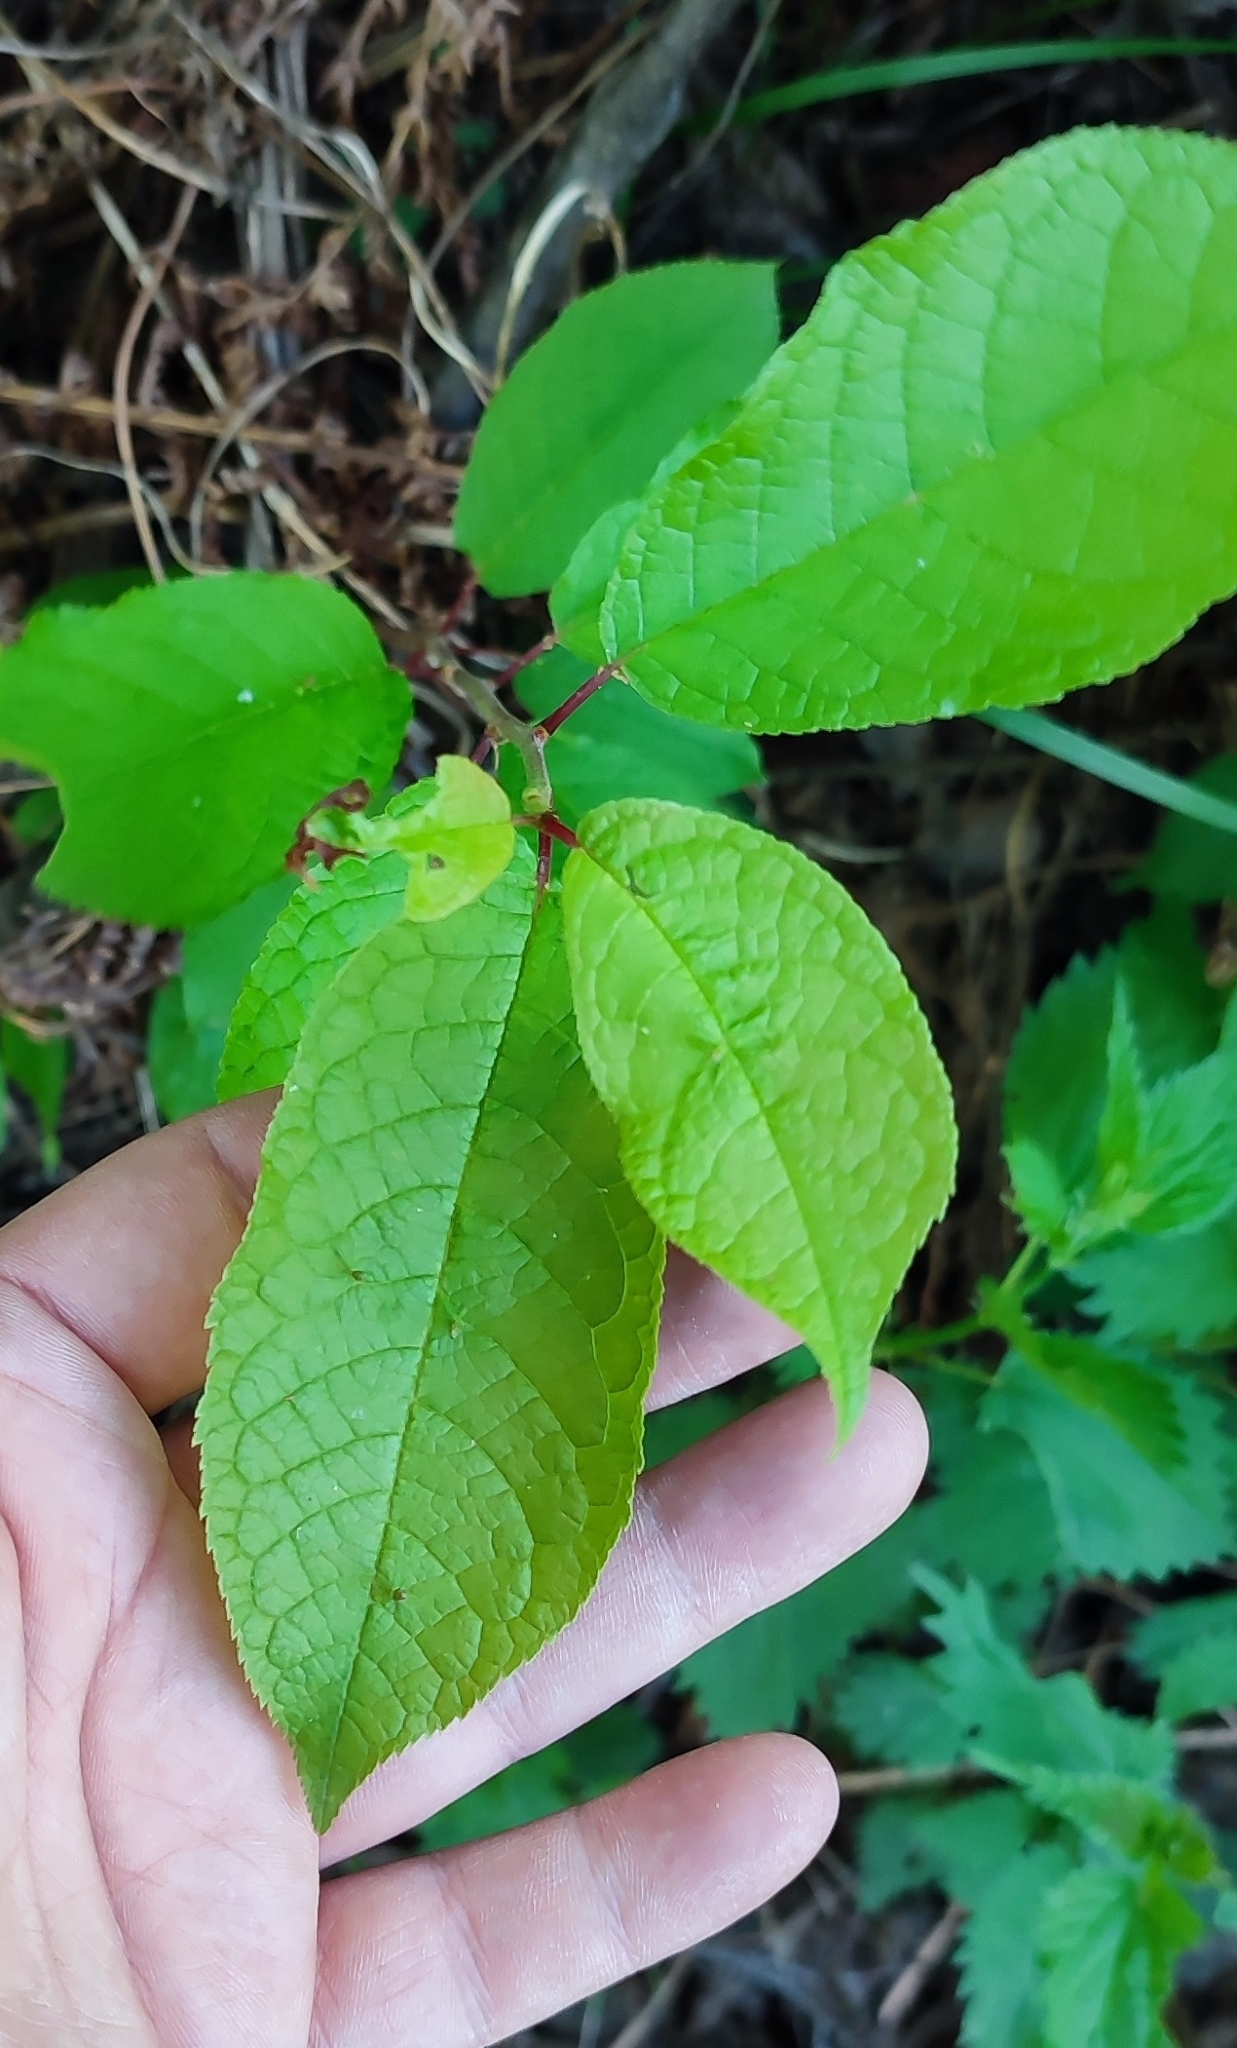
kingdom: Plantae
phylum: Tracheophyta
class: Magnoliopsida
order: Rosales
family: Rosaceae
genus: Prunus
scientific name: Prunus padus
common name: Bird cherry
